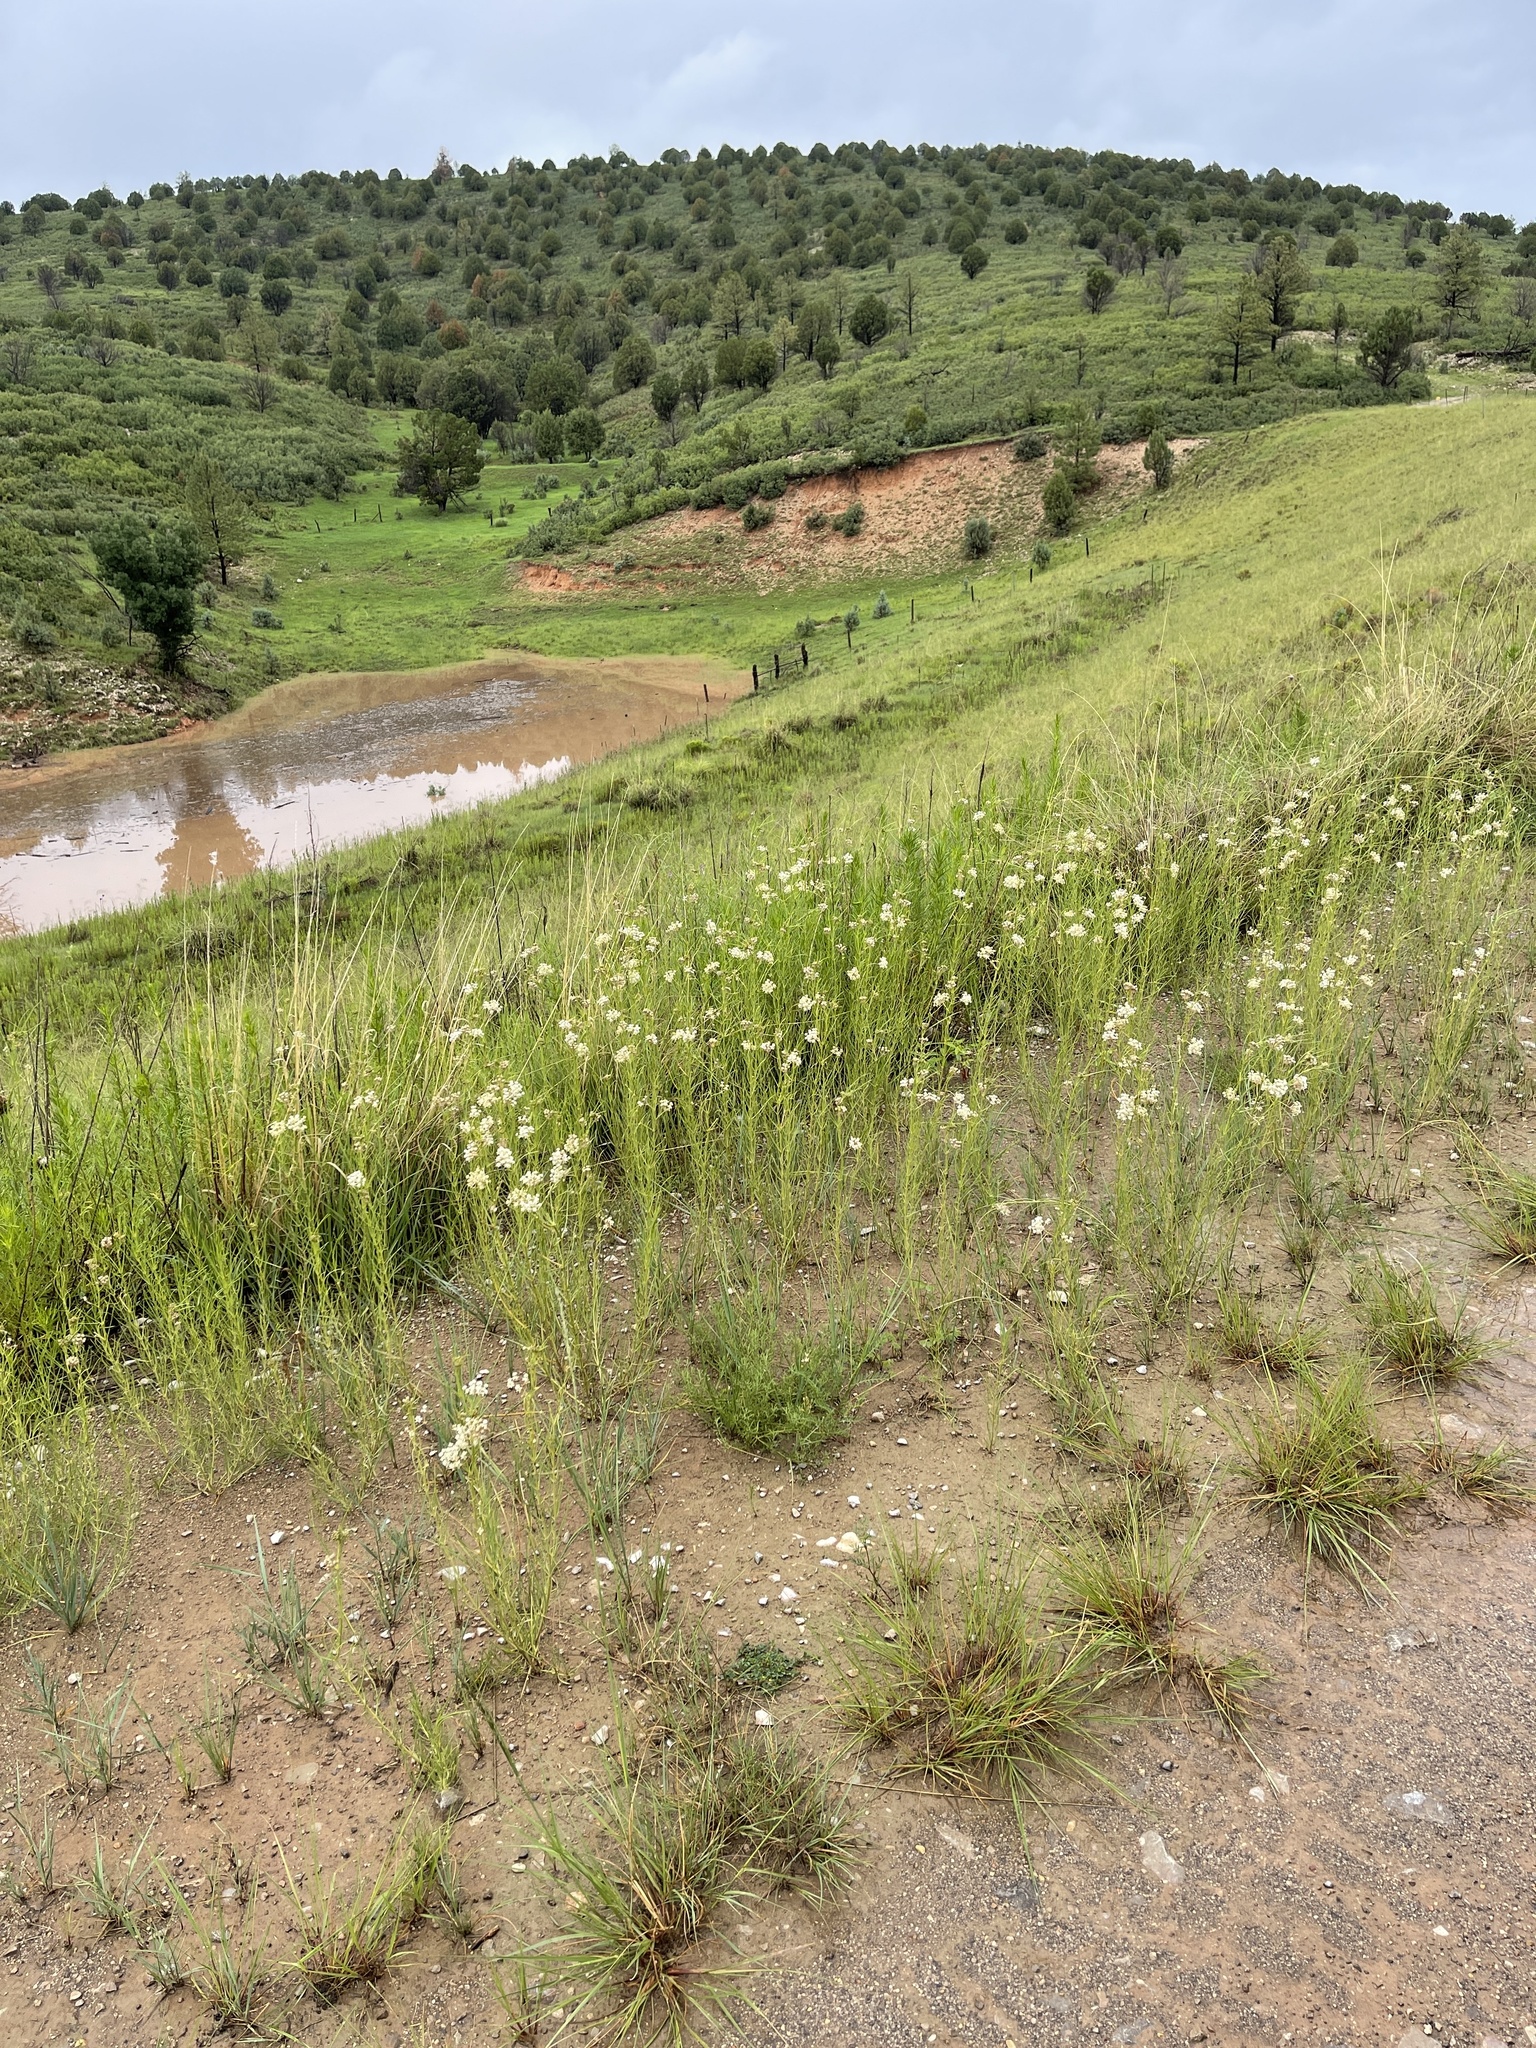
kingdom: Plantae
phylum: Tracheophyta
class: Magnoliopsida
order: Gentianales
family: Apocynaceae
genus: Asclepias
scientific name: Asclepias subverticillata
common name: Horsetail milkweed
